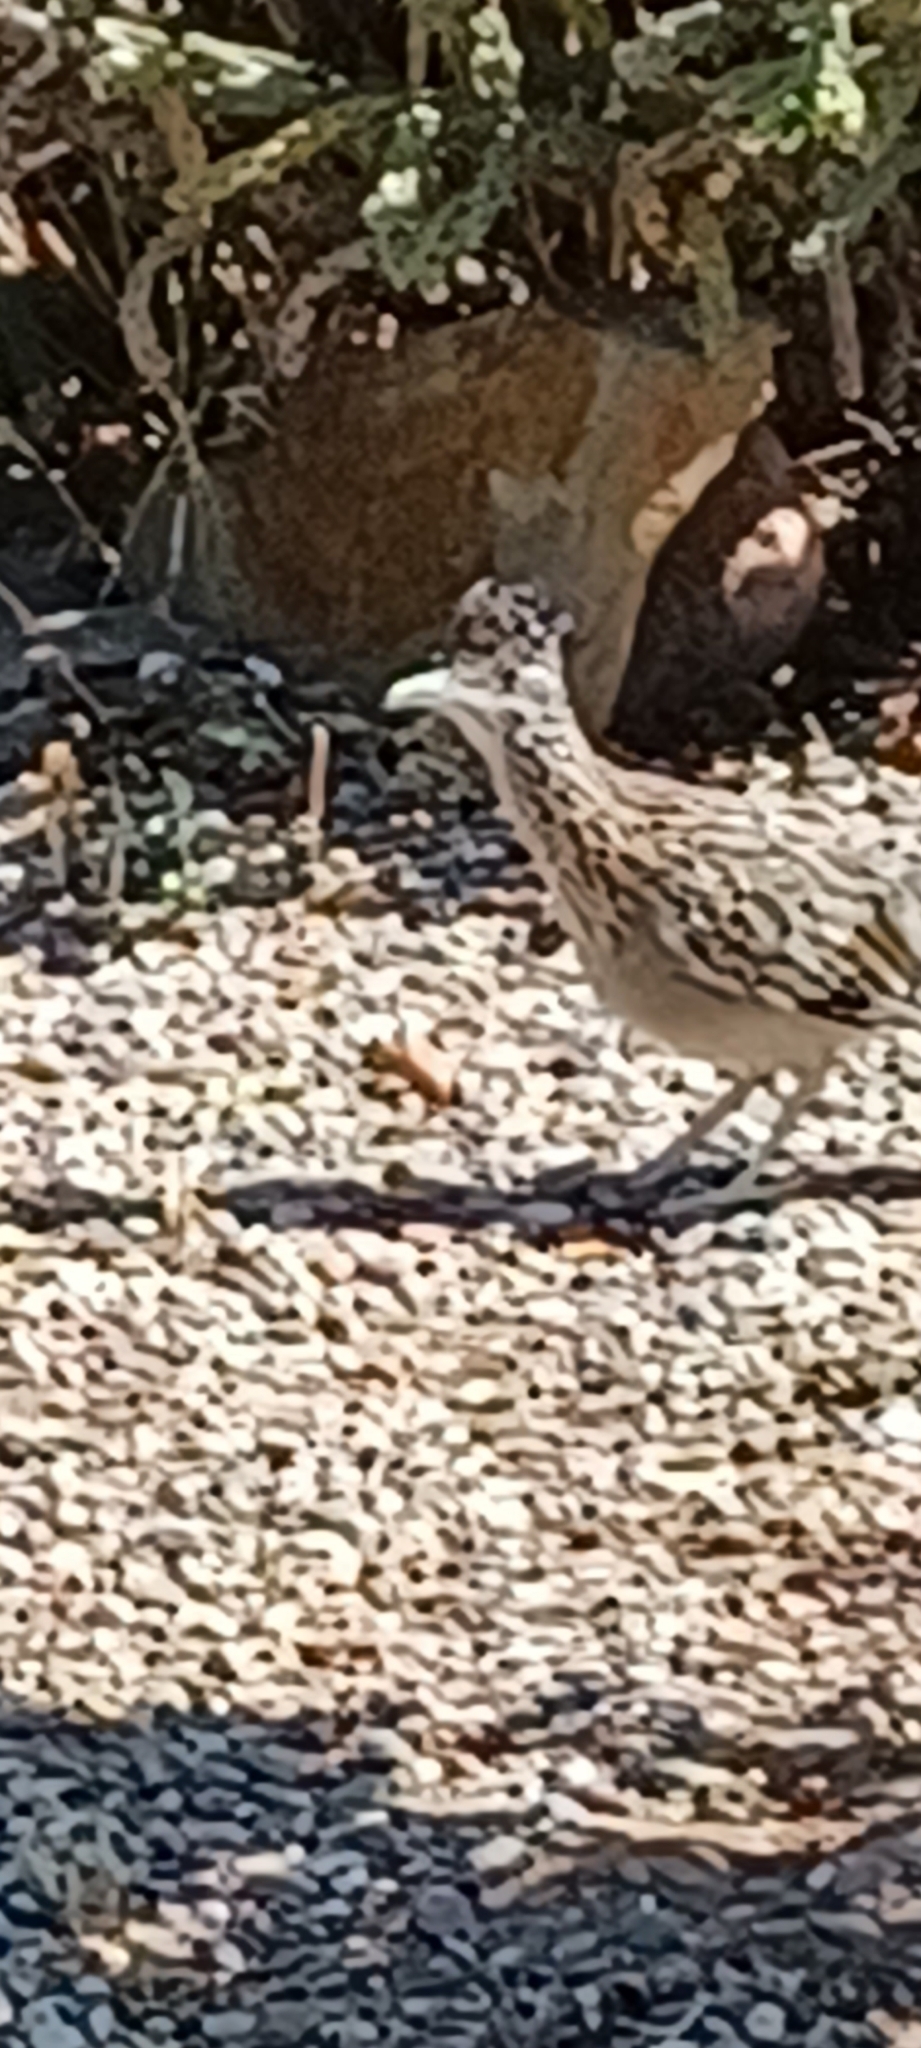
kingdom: Animalia
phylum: Chordata
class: Aves
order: Cuculiformes
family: Cuculidae
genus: Geococcyx
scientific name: Geococcyx californianus
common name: Greater roadrunner
